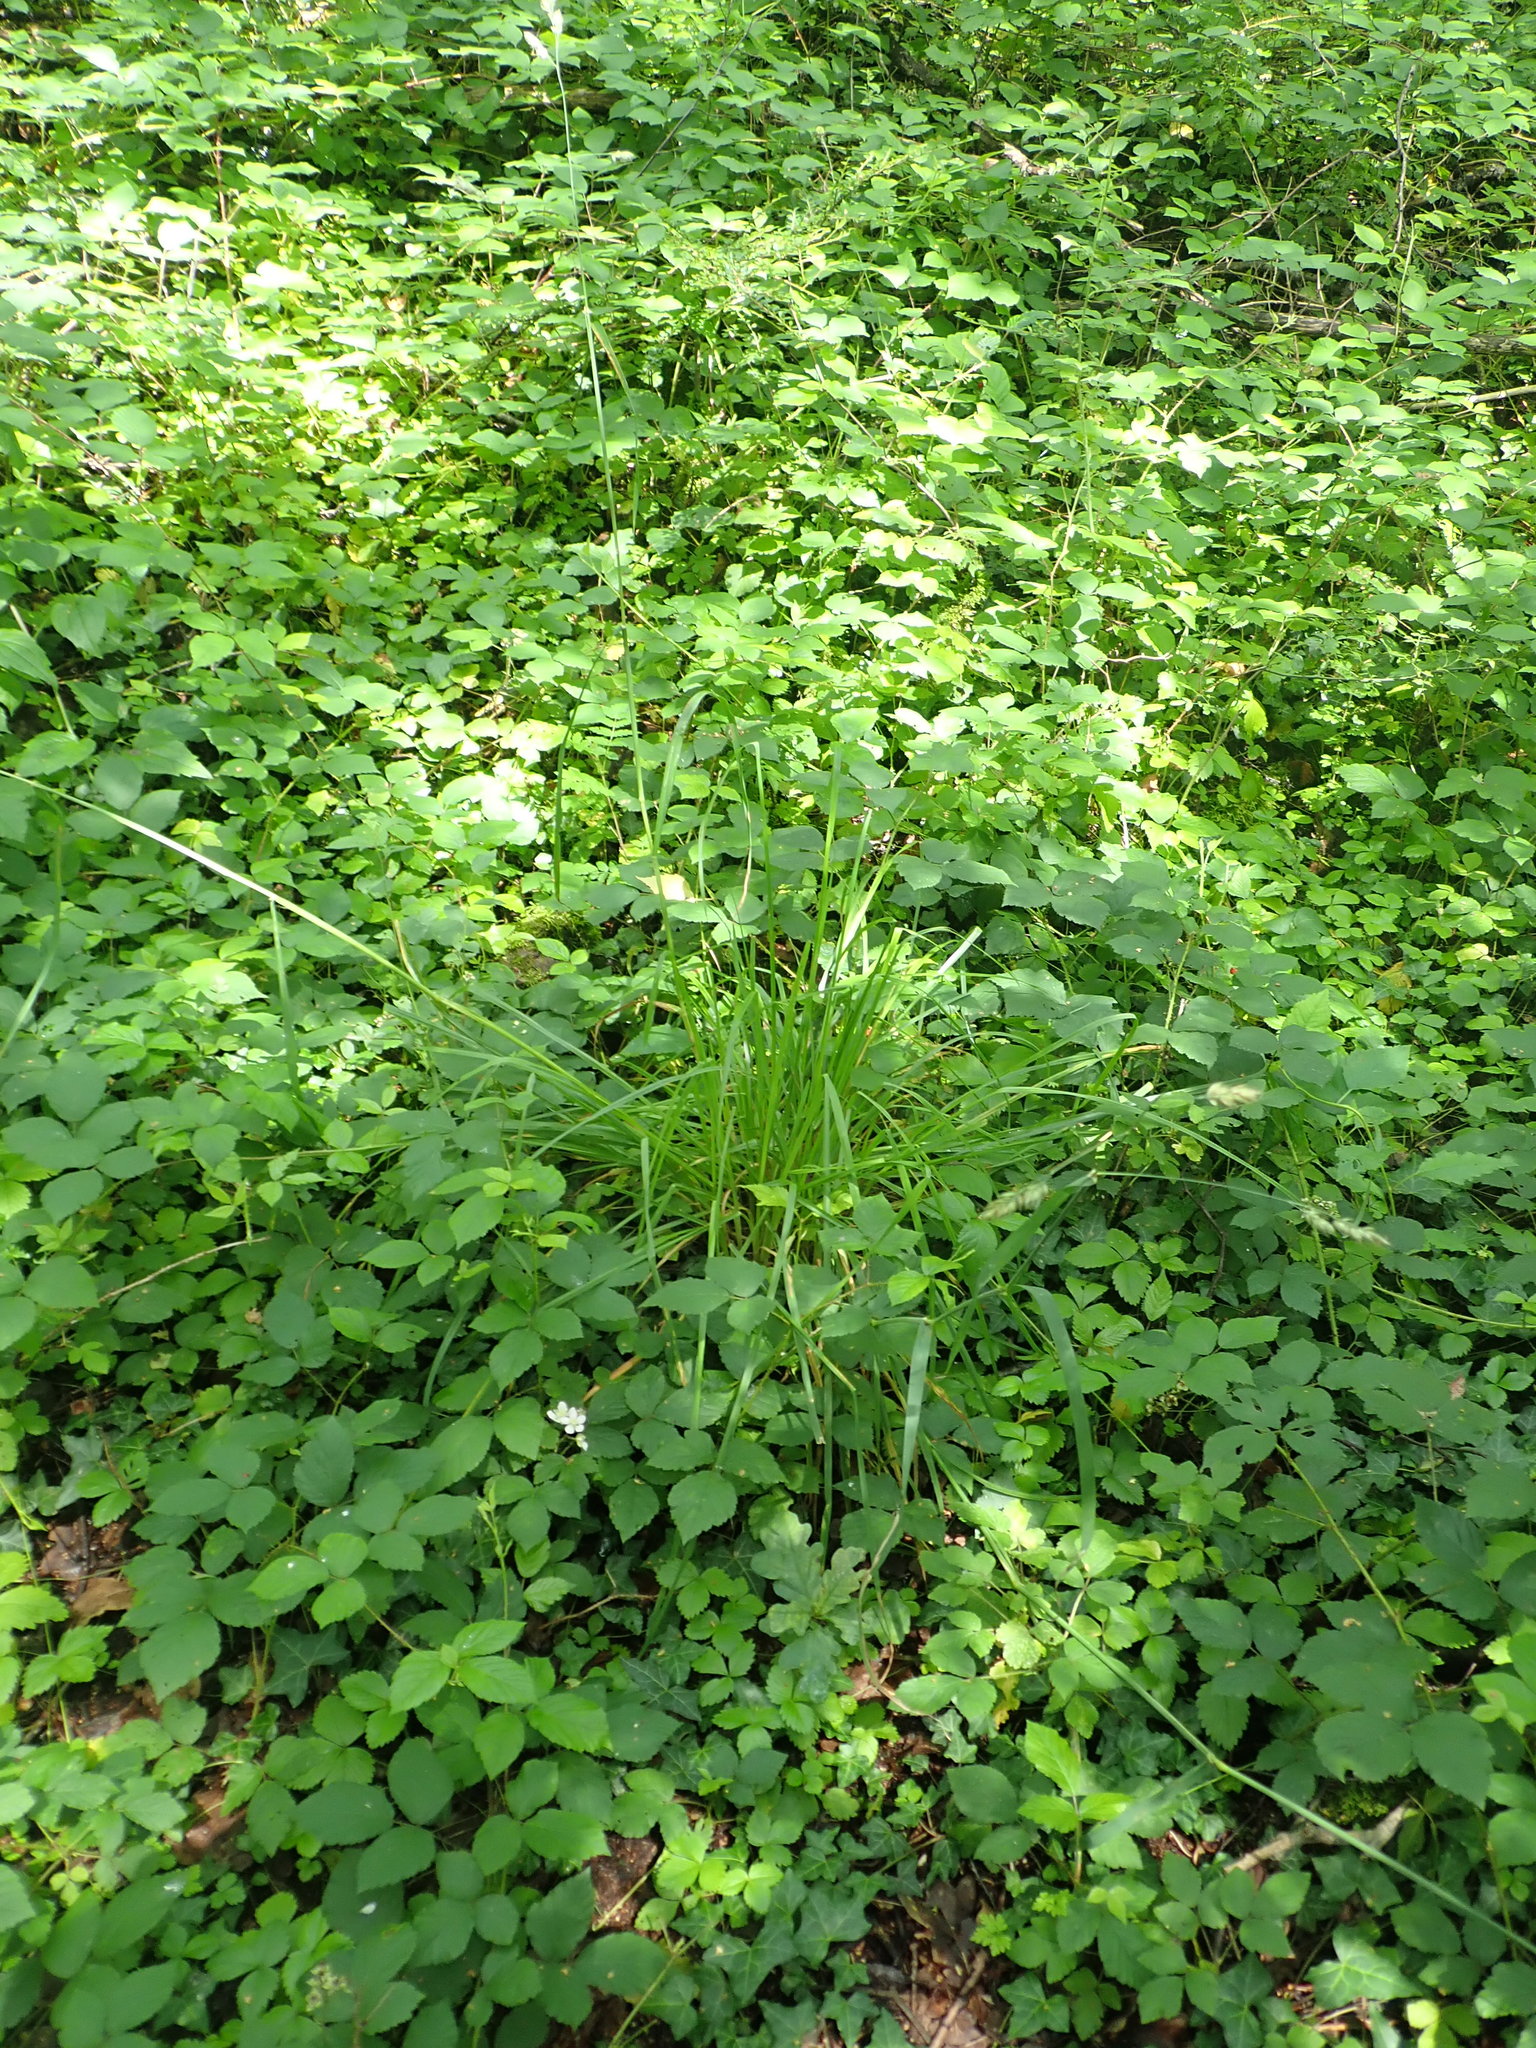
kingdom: Plantae
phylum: Tracheophyta
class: Liliopsida
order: Poales
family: Poaceae
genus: Dactylis
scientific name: Dactylis glomerata
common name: Orchardgrass
